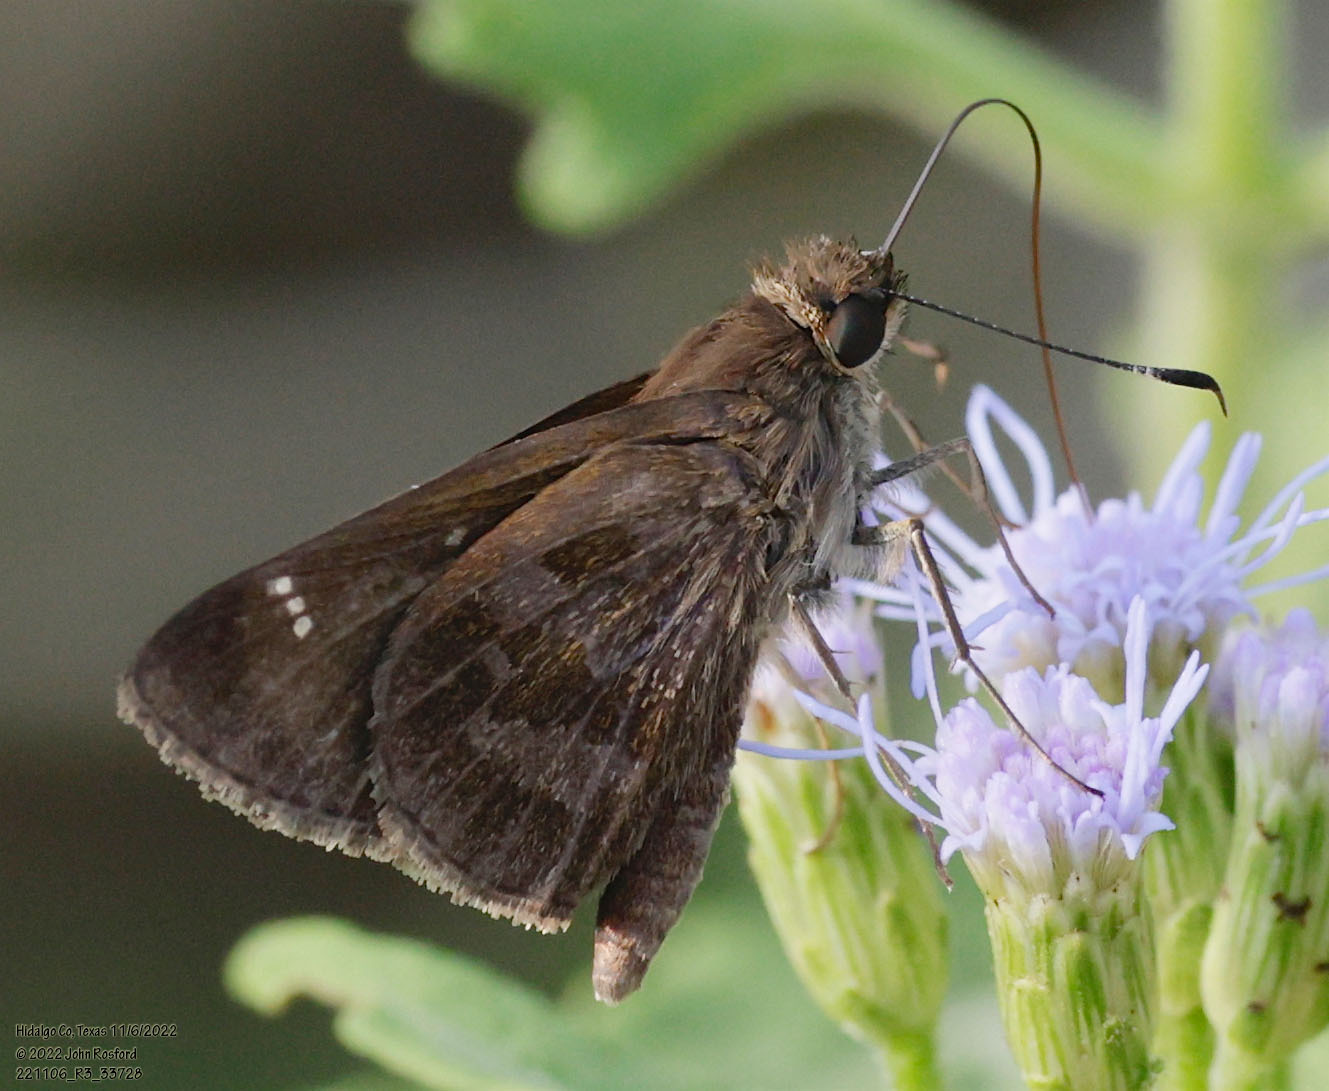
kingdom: Animalia
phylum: Arthropoda
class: Insecta
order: Lepidoptera
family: Hesperiidae
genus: Cymaenes
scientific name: Cymaenes
